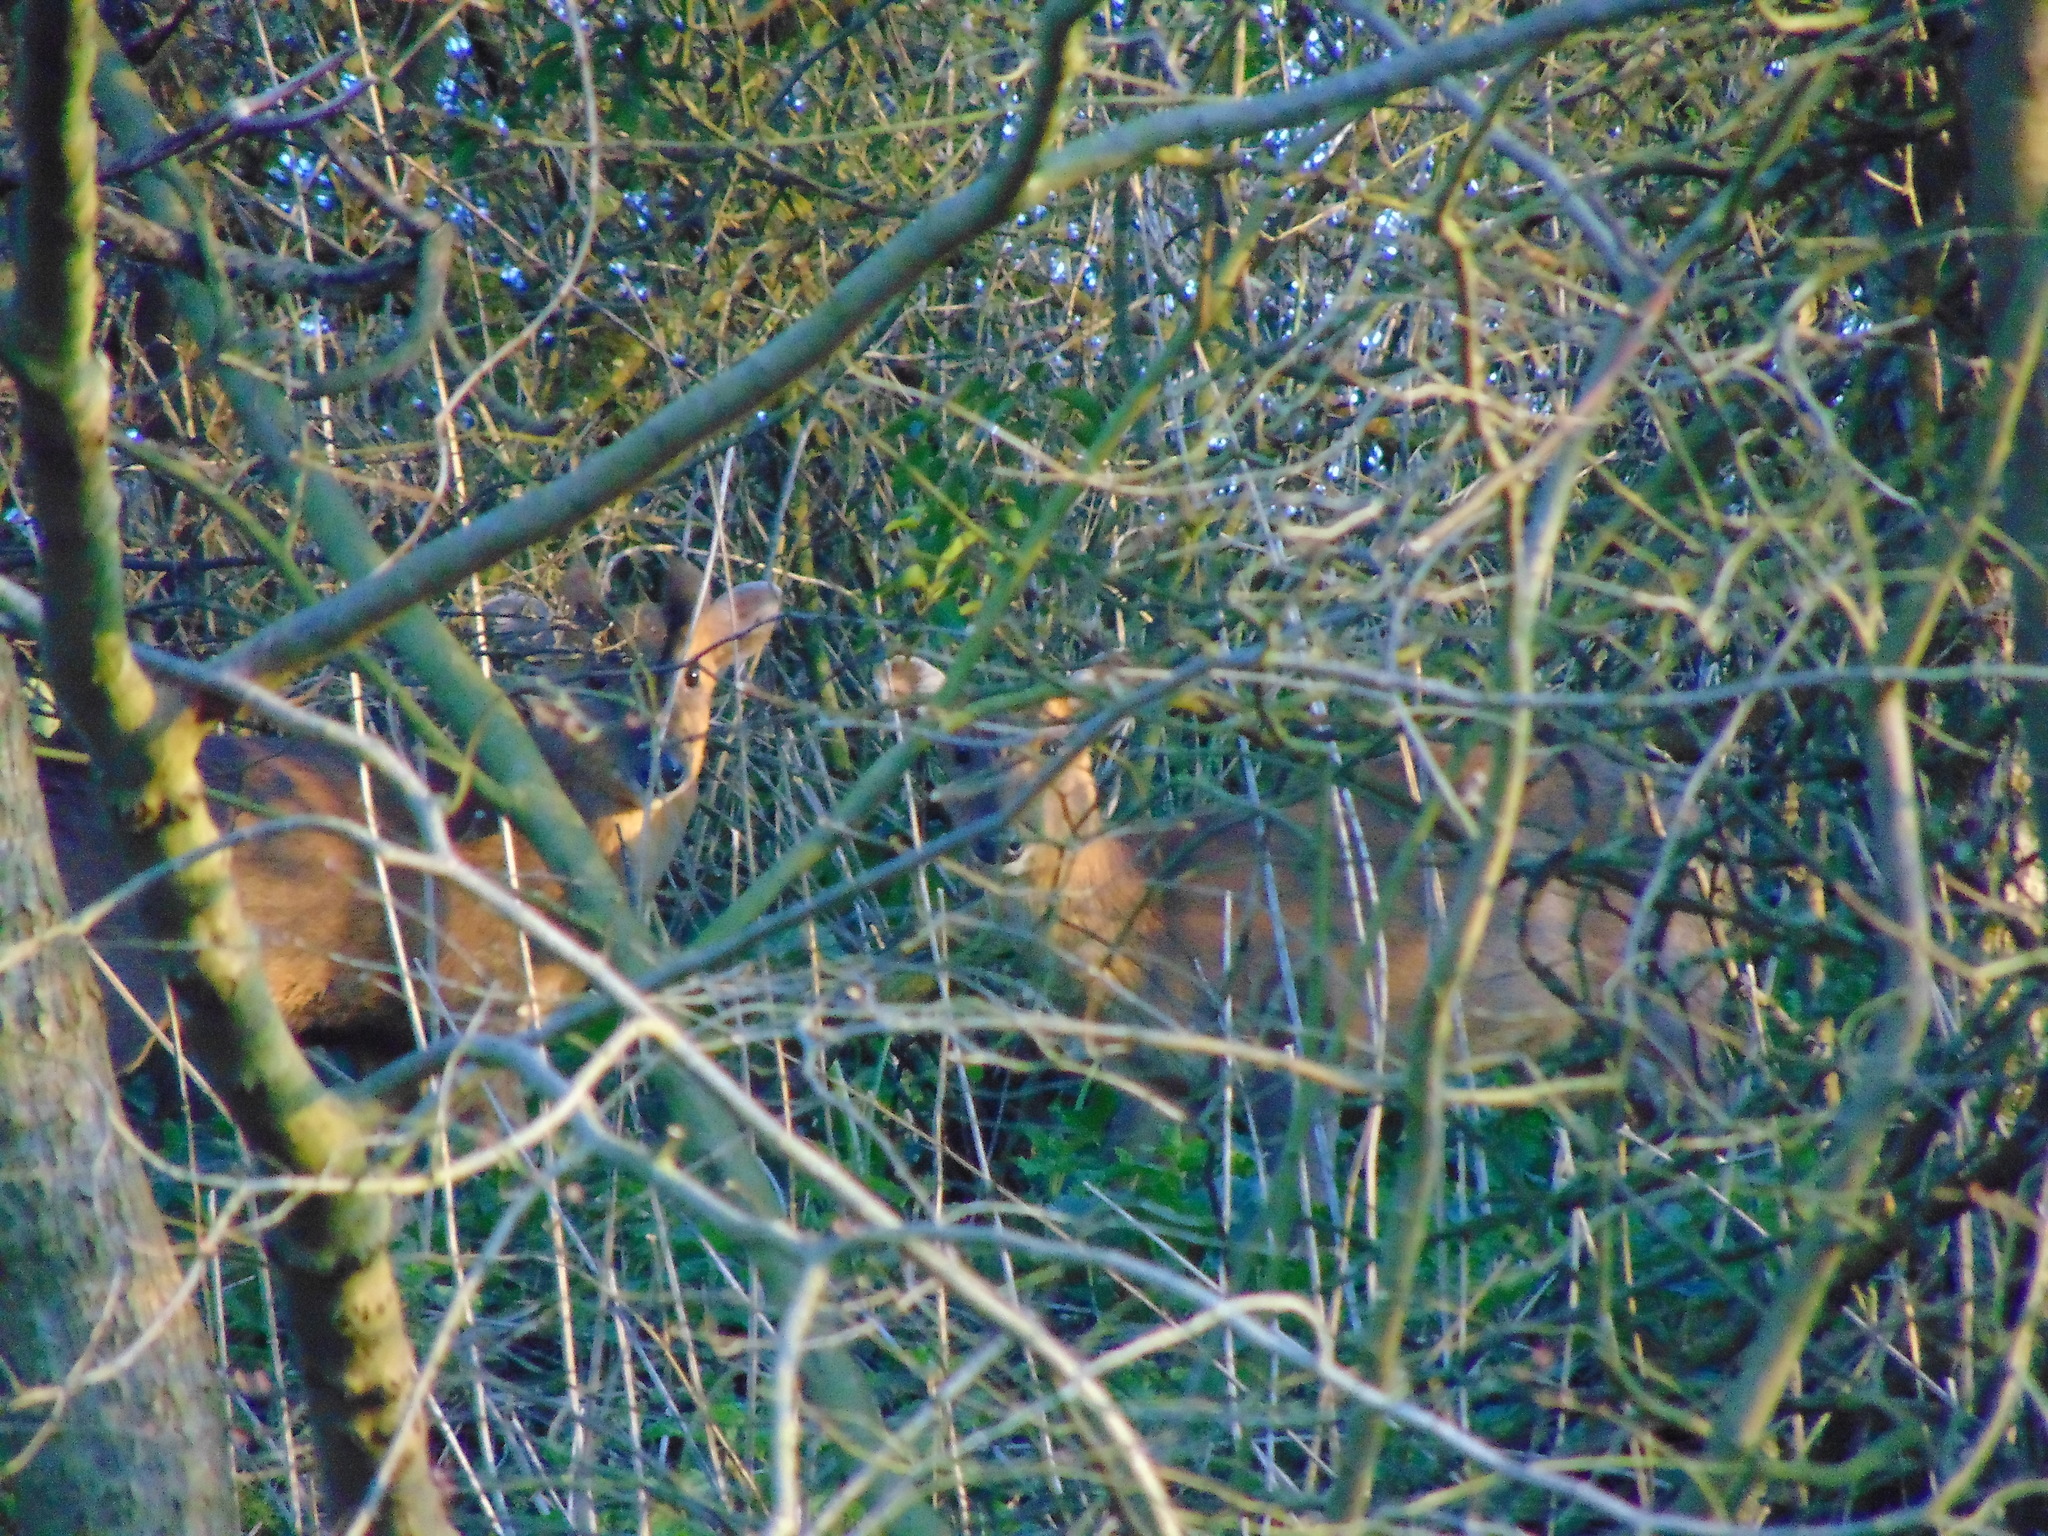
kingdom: Animalia
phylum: Chordata
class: Mammalia
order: Artiodactyla
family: Cervidae
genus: Muntiacus
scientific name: Muntiacus reevesi
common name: Reeves' muntjac
